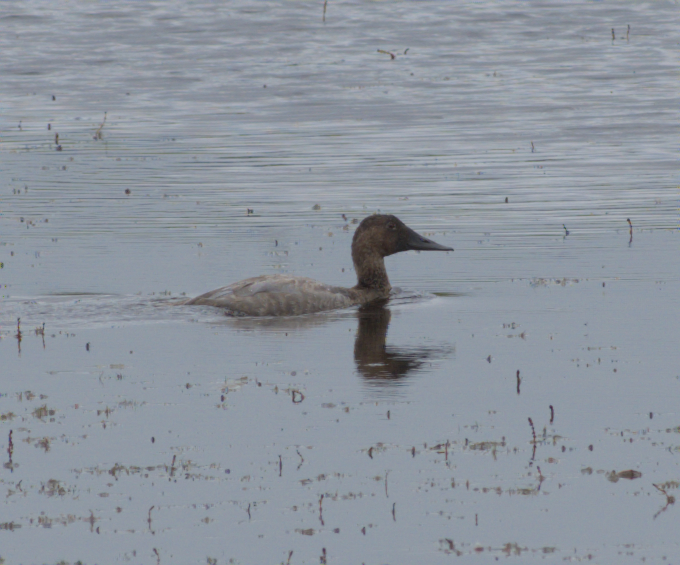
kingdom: Animalia
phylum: Chordata
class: Aves
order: Anseriformes
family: Anatidae
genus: Aythya
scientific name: Aythya valisineria
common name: Canvasback
